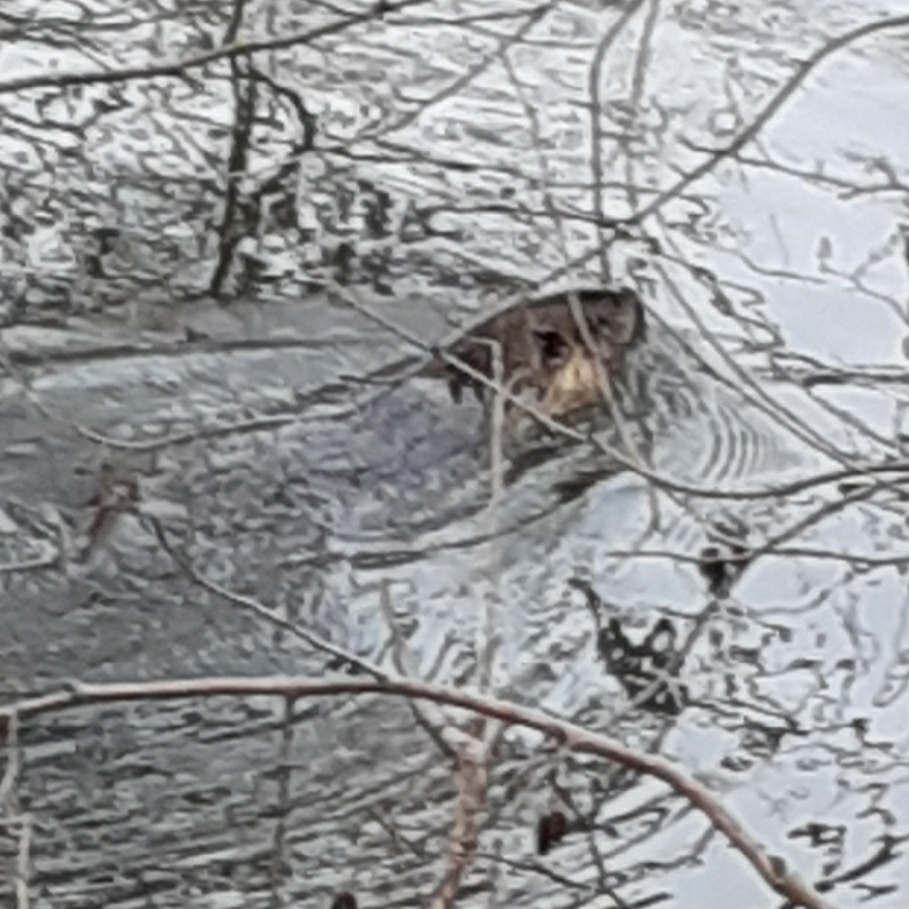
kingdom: Animalia
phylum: Chordata
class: Mammalia
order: Rodentia
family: Myocastoridae
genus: Myocastor
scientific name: Myocastor coypus
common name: Coypu
